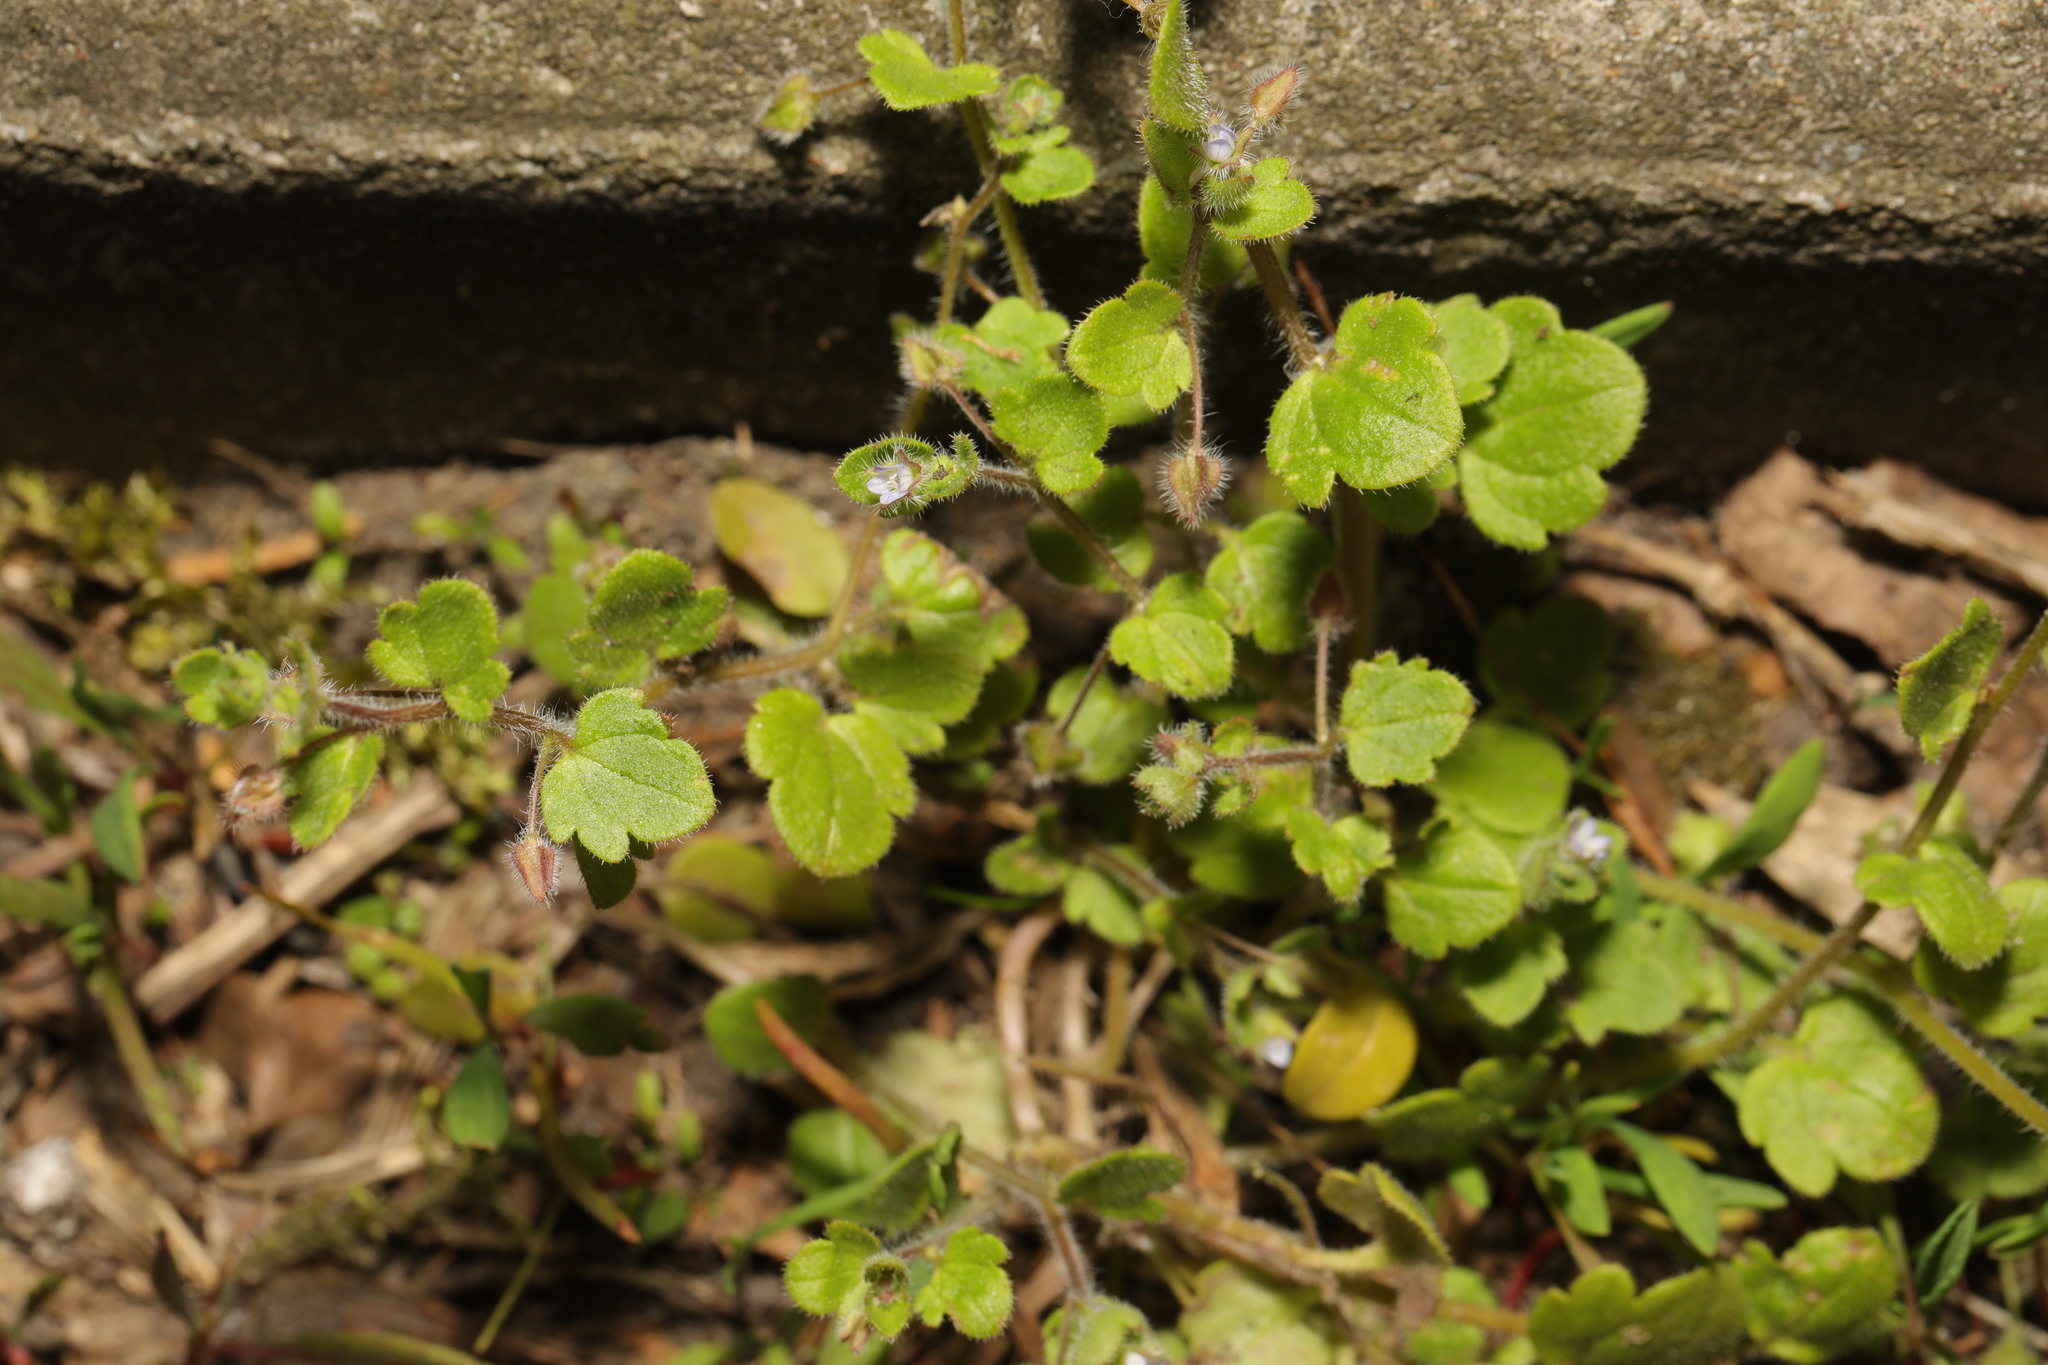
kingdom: Plantae
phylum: Tracheophyta
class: Magnoliopsida
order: Lamiales
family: Plantaginaceae
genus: Veronica
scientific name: Veronica sublobata
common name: False ivy-leaved speedwell
